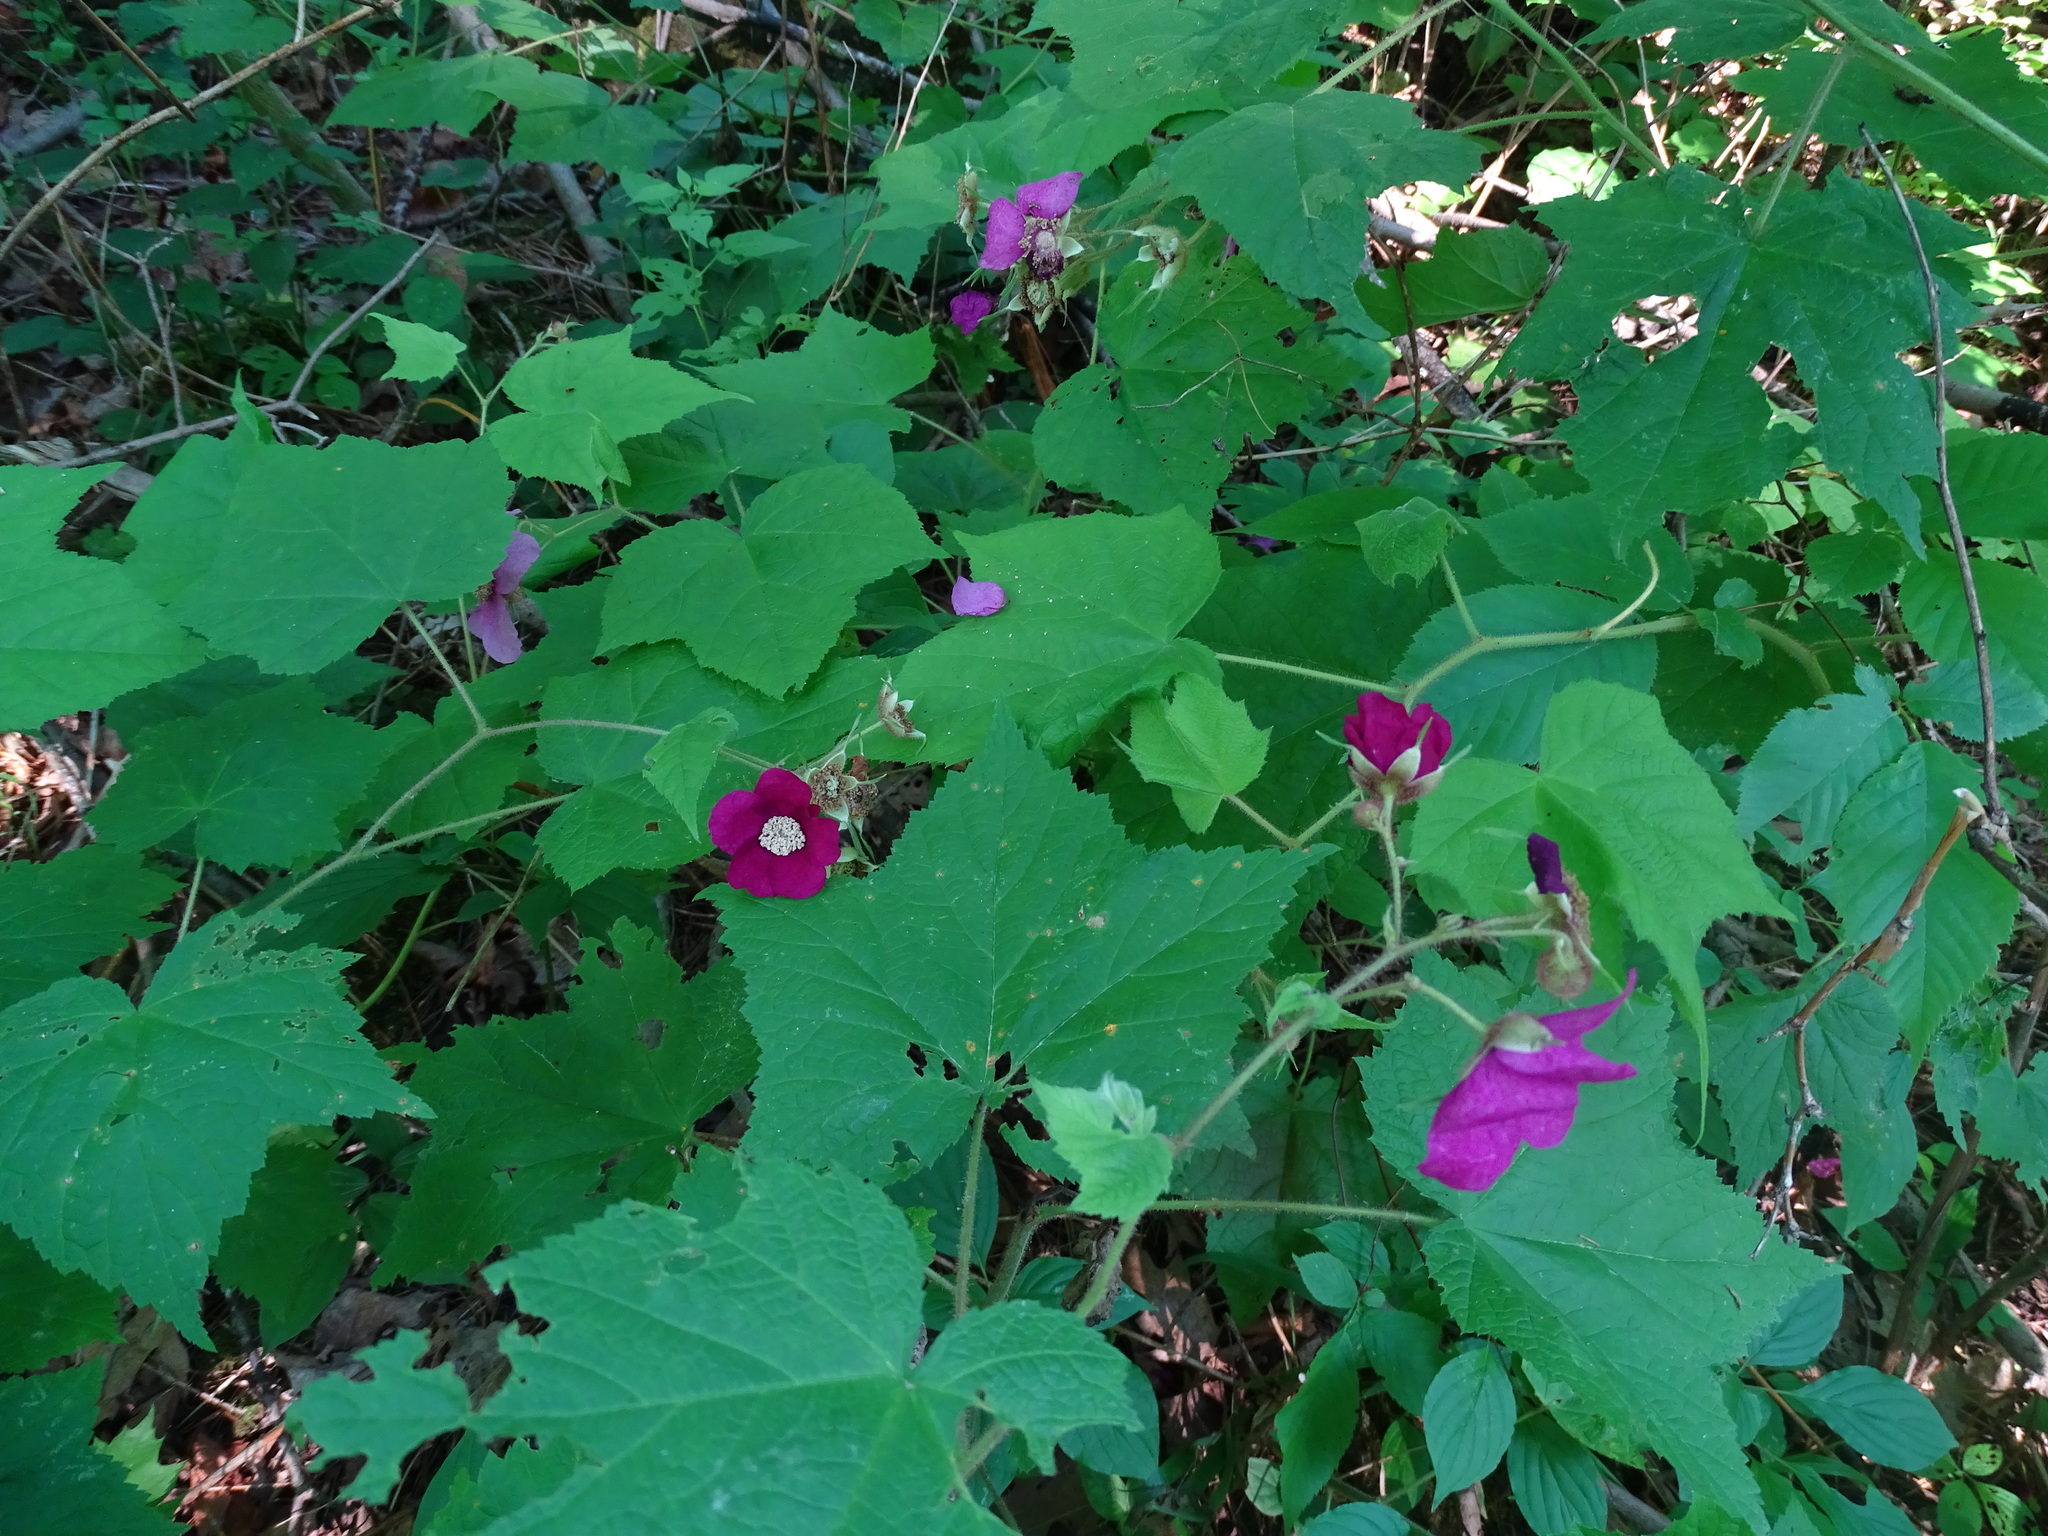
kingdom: Plantae
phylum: Tracheophyta
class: Magnoliopsida
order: Rosales
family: Rosaceae
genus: Rubus
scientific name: Rubus odoratus
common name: Purple-flowered raspberry
